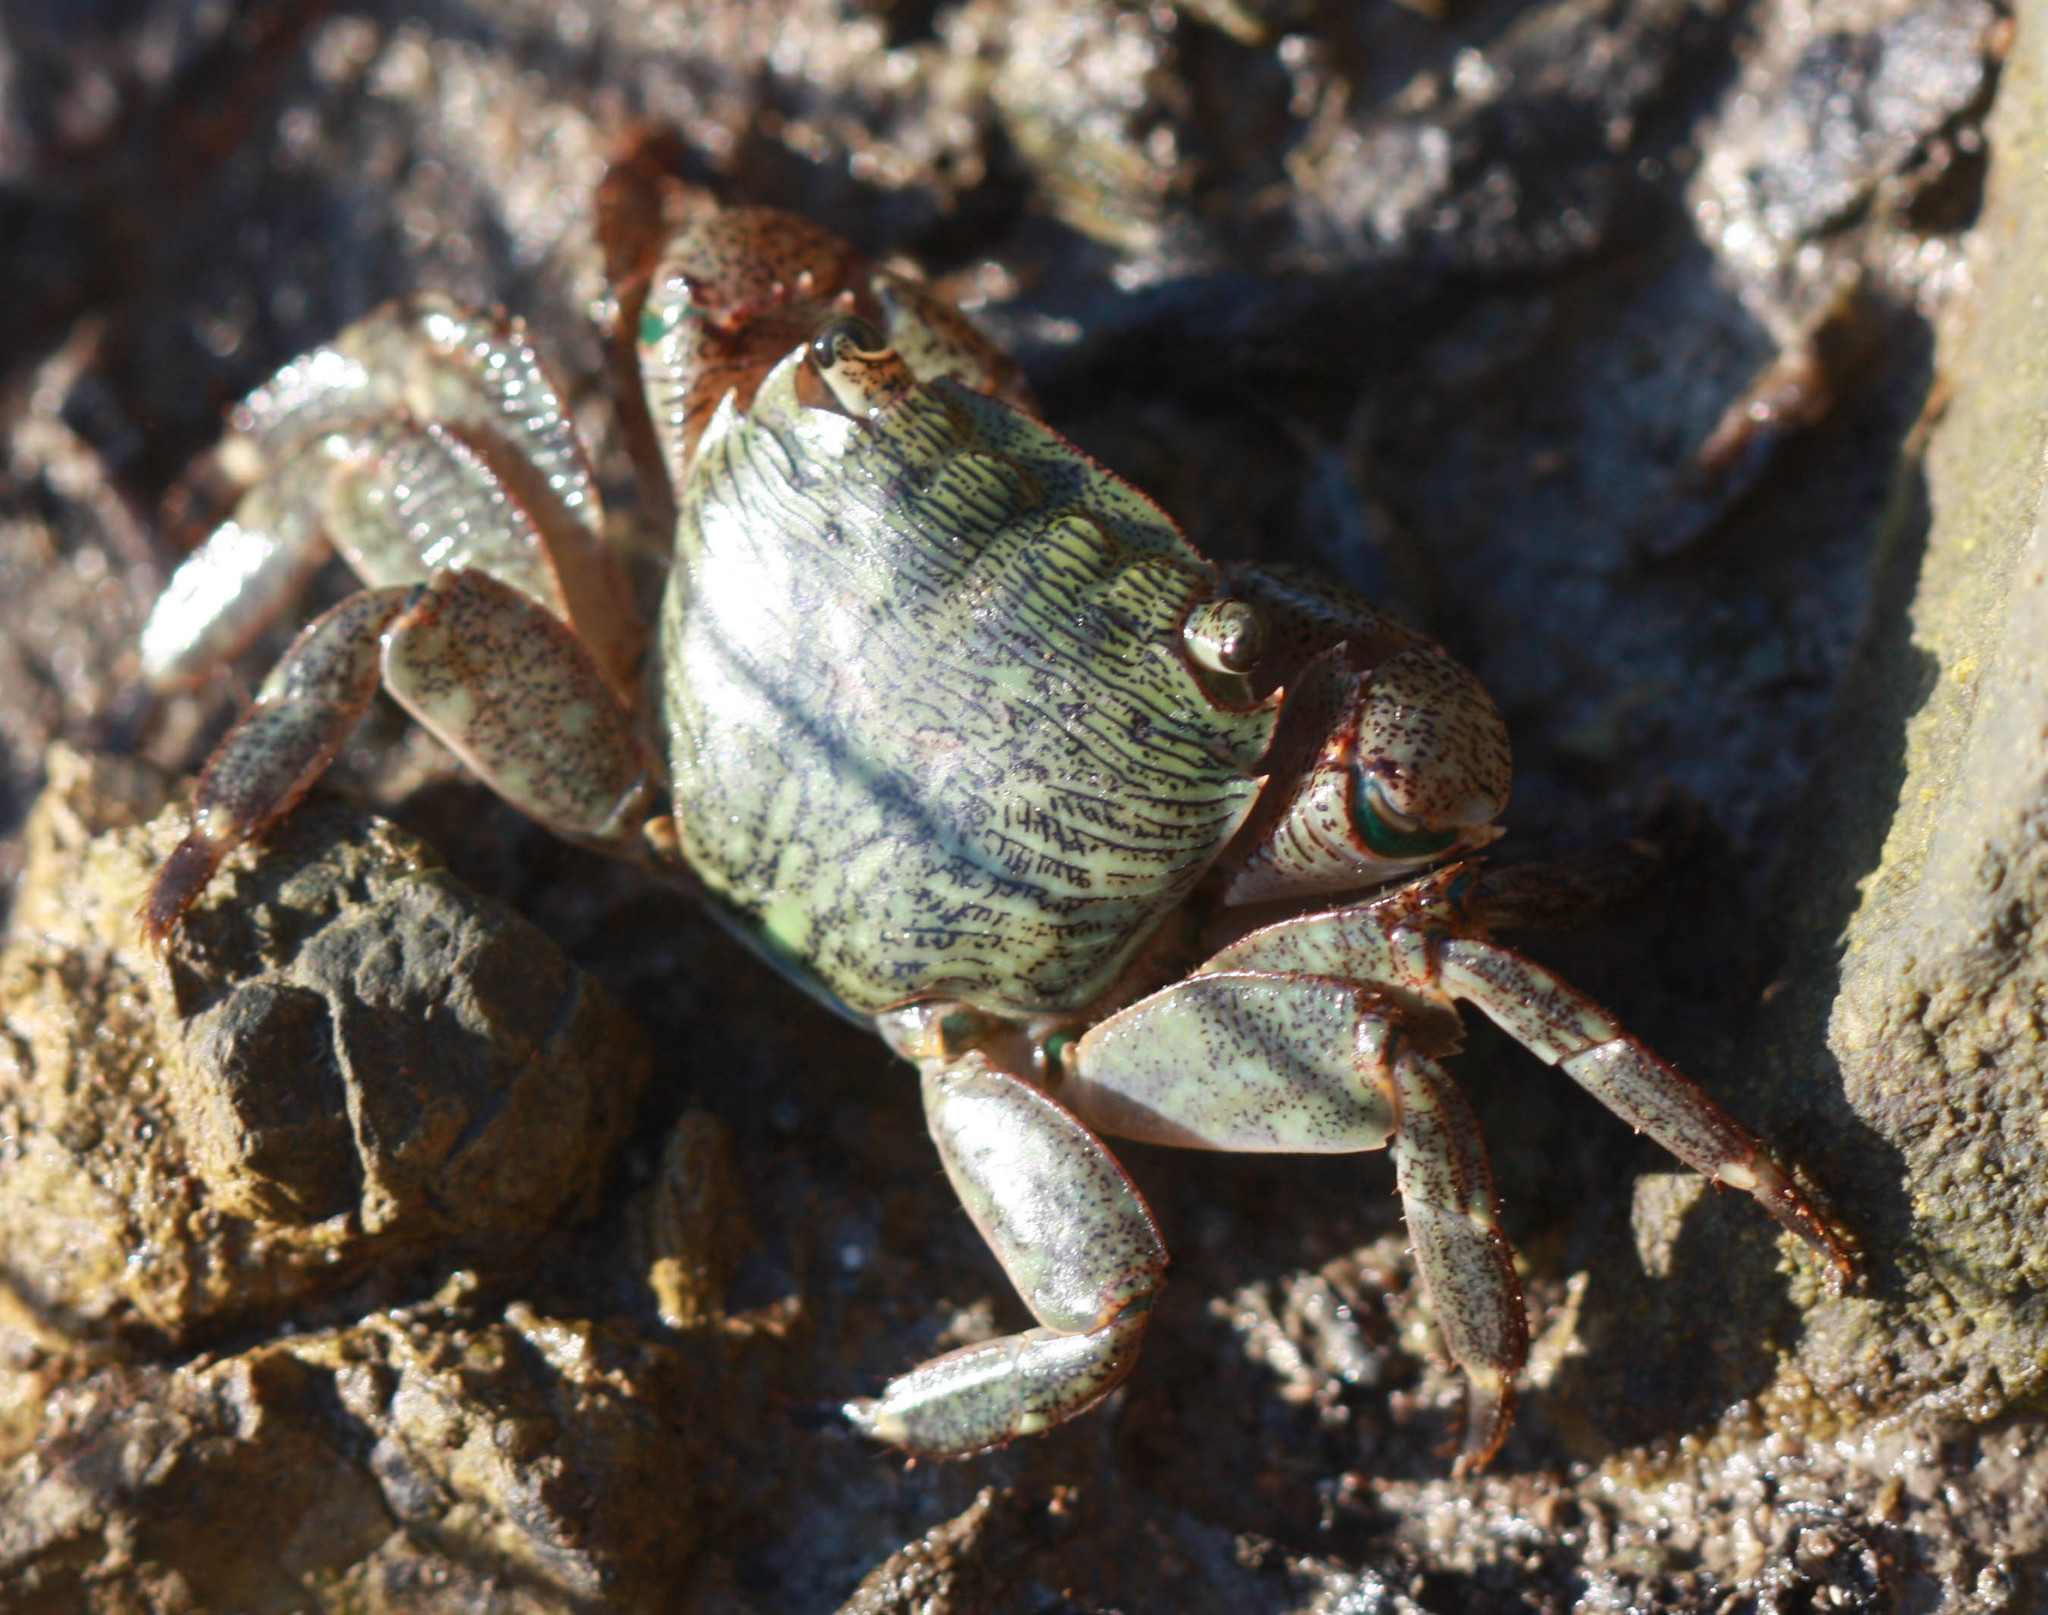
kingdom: Animalia
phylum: Arthropoda
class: Malacostraca
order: Decapoda
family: Grapsidae
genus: Pachygrapsus
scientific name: Pachygrapsus crassipes
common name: Striped shore crab
